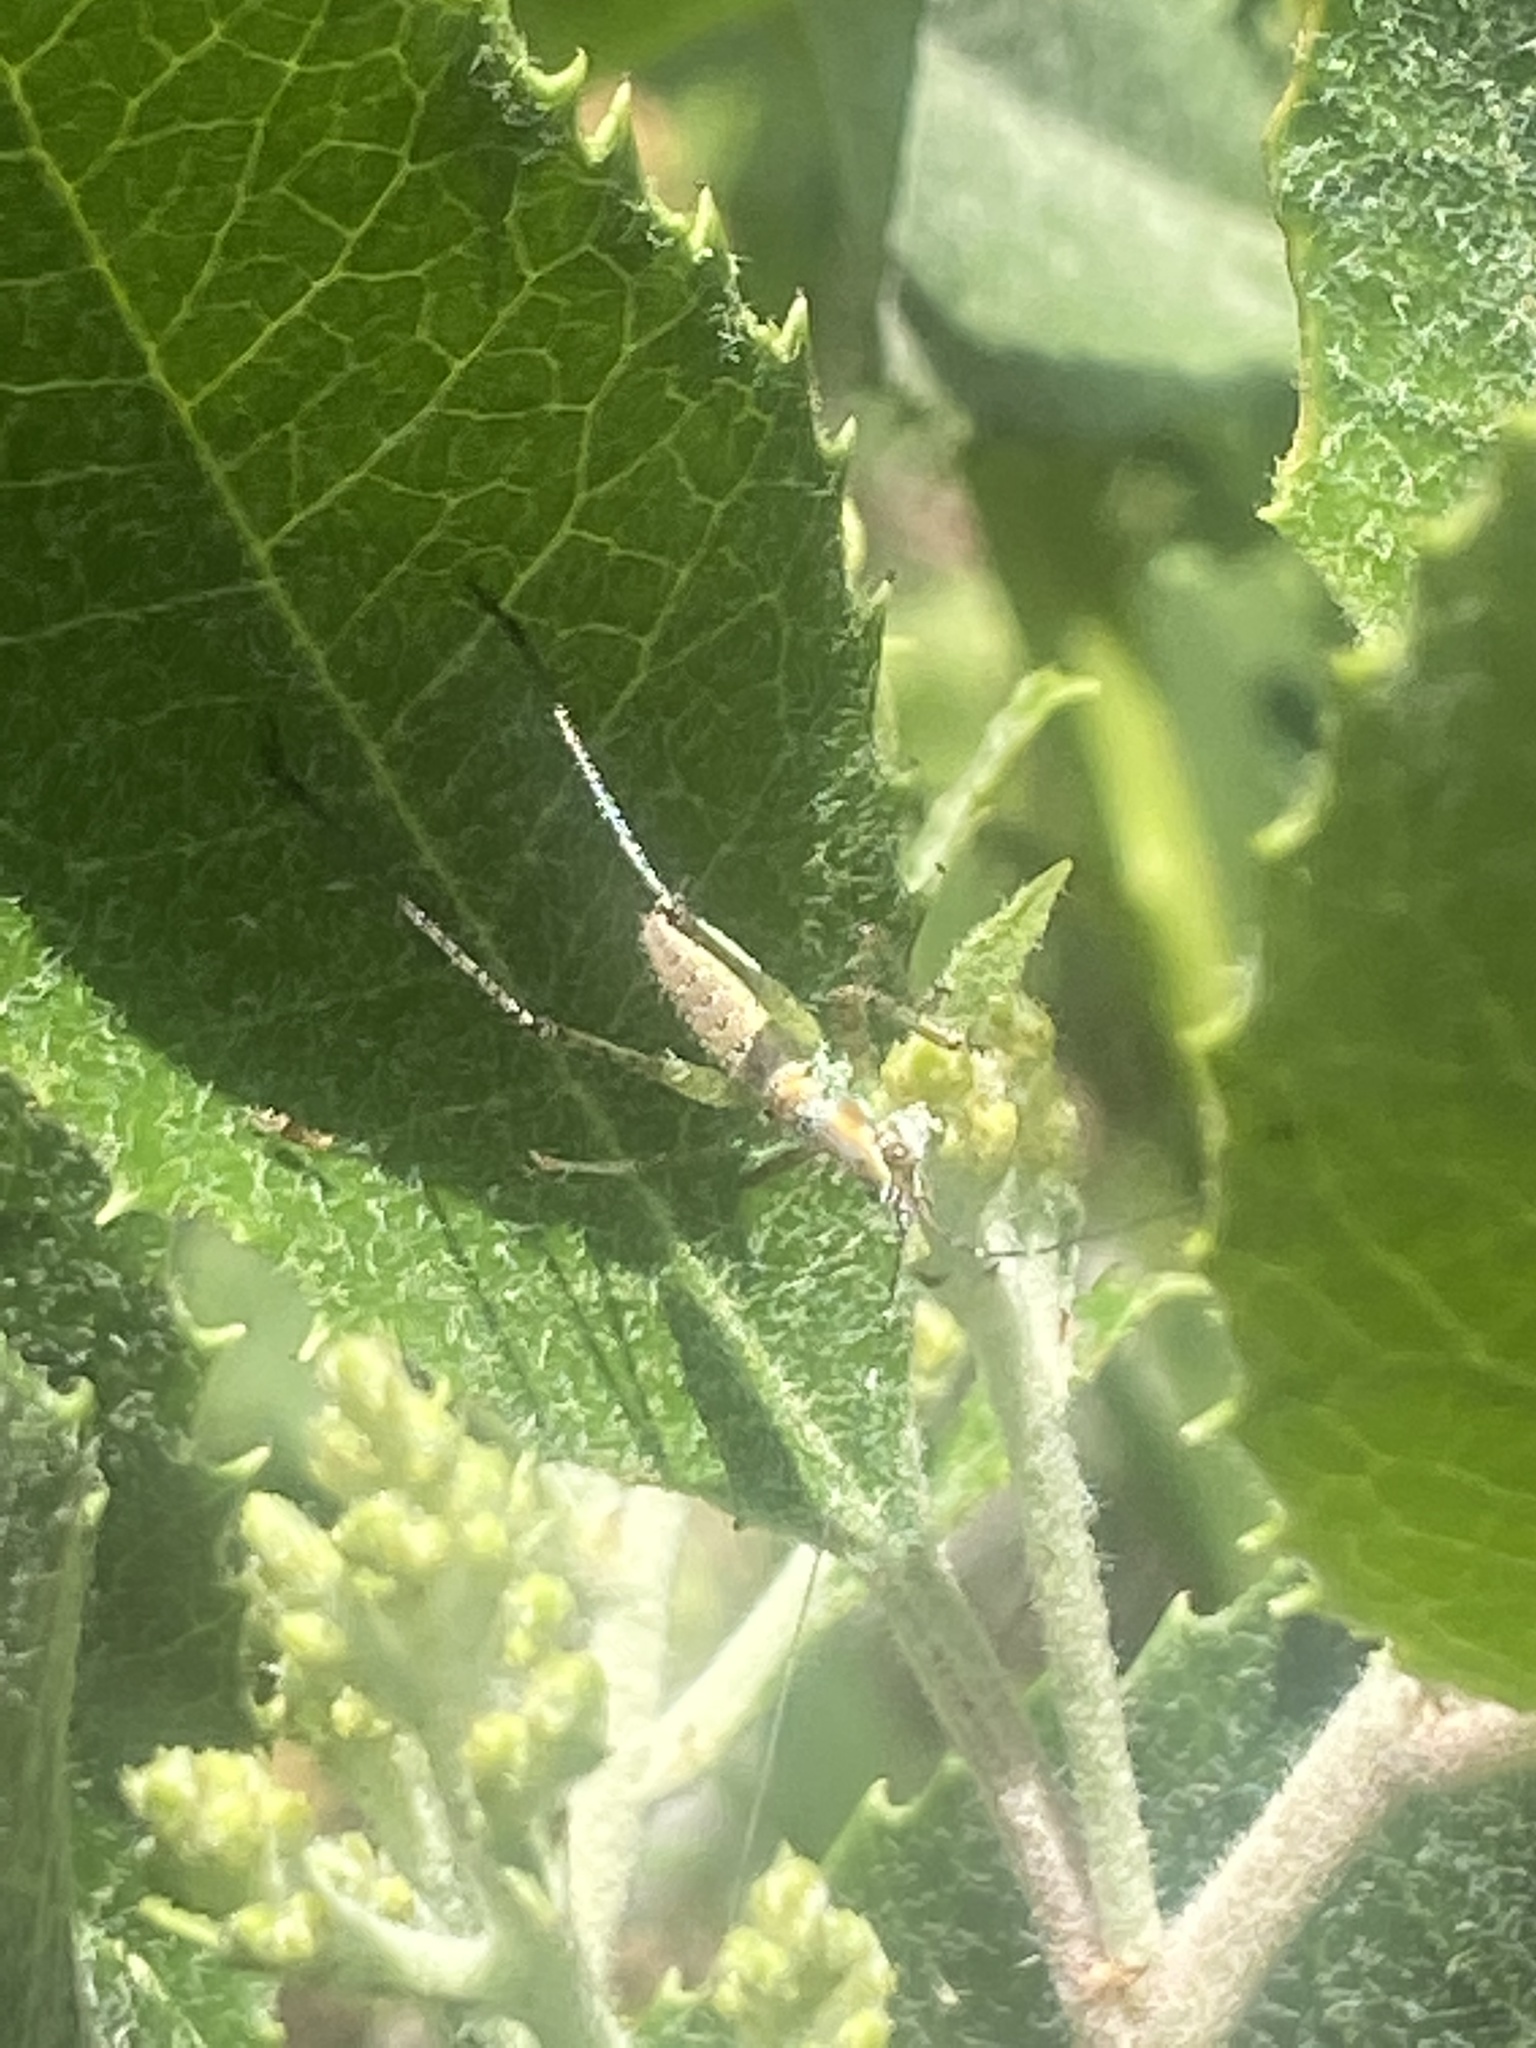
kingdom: Animalia
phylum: Arthropoda
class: Insecta
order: Orthoptera
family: Tettigoniidae
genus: Scudderia
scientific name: Scudderia
